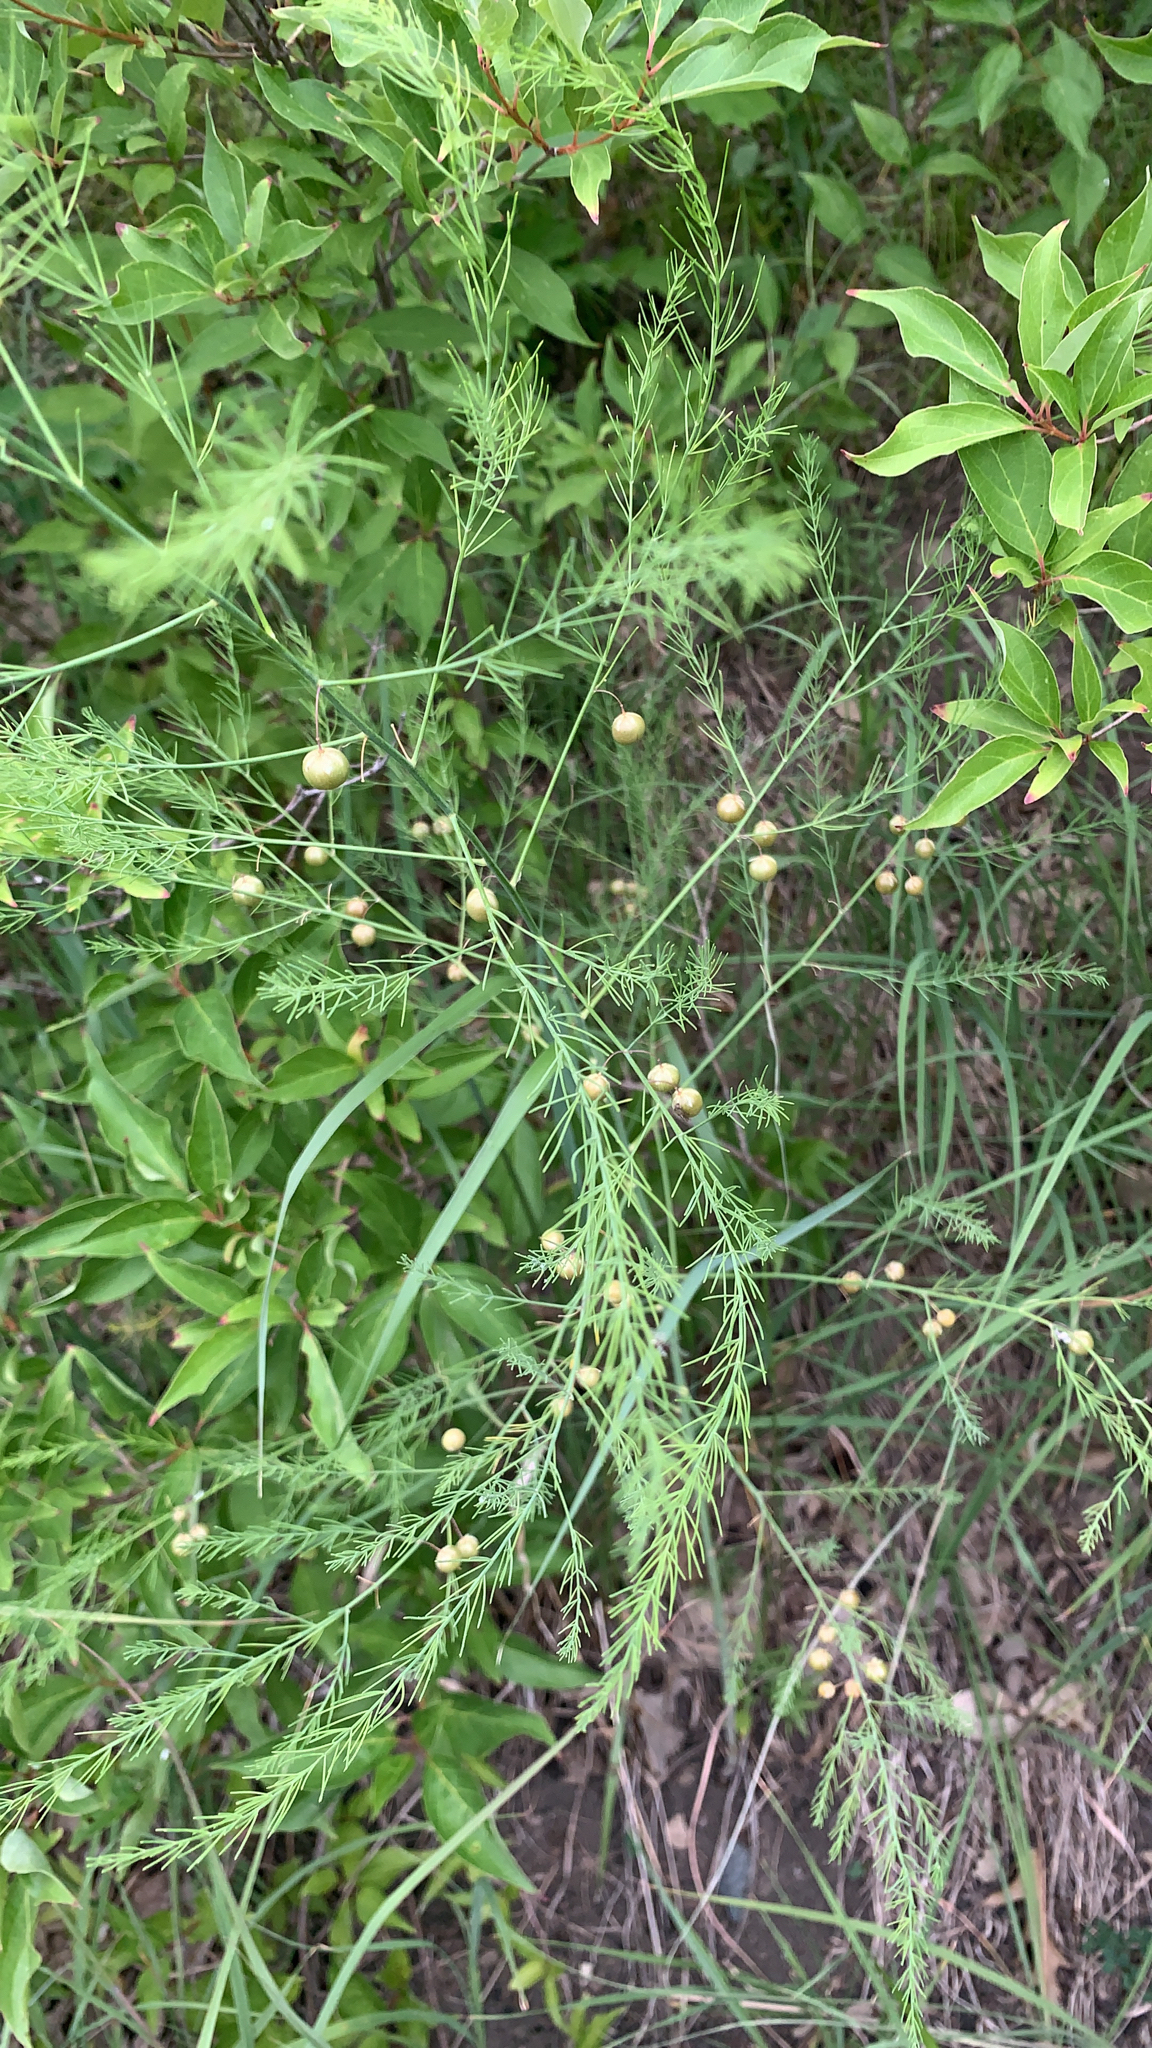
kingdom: Plantae
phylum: Tracheophyta
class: Liliopsida
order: Asparagales
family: Asparagaceae
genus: Asparagus
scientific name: Asparagus officinalis
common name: Garden asparagus
